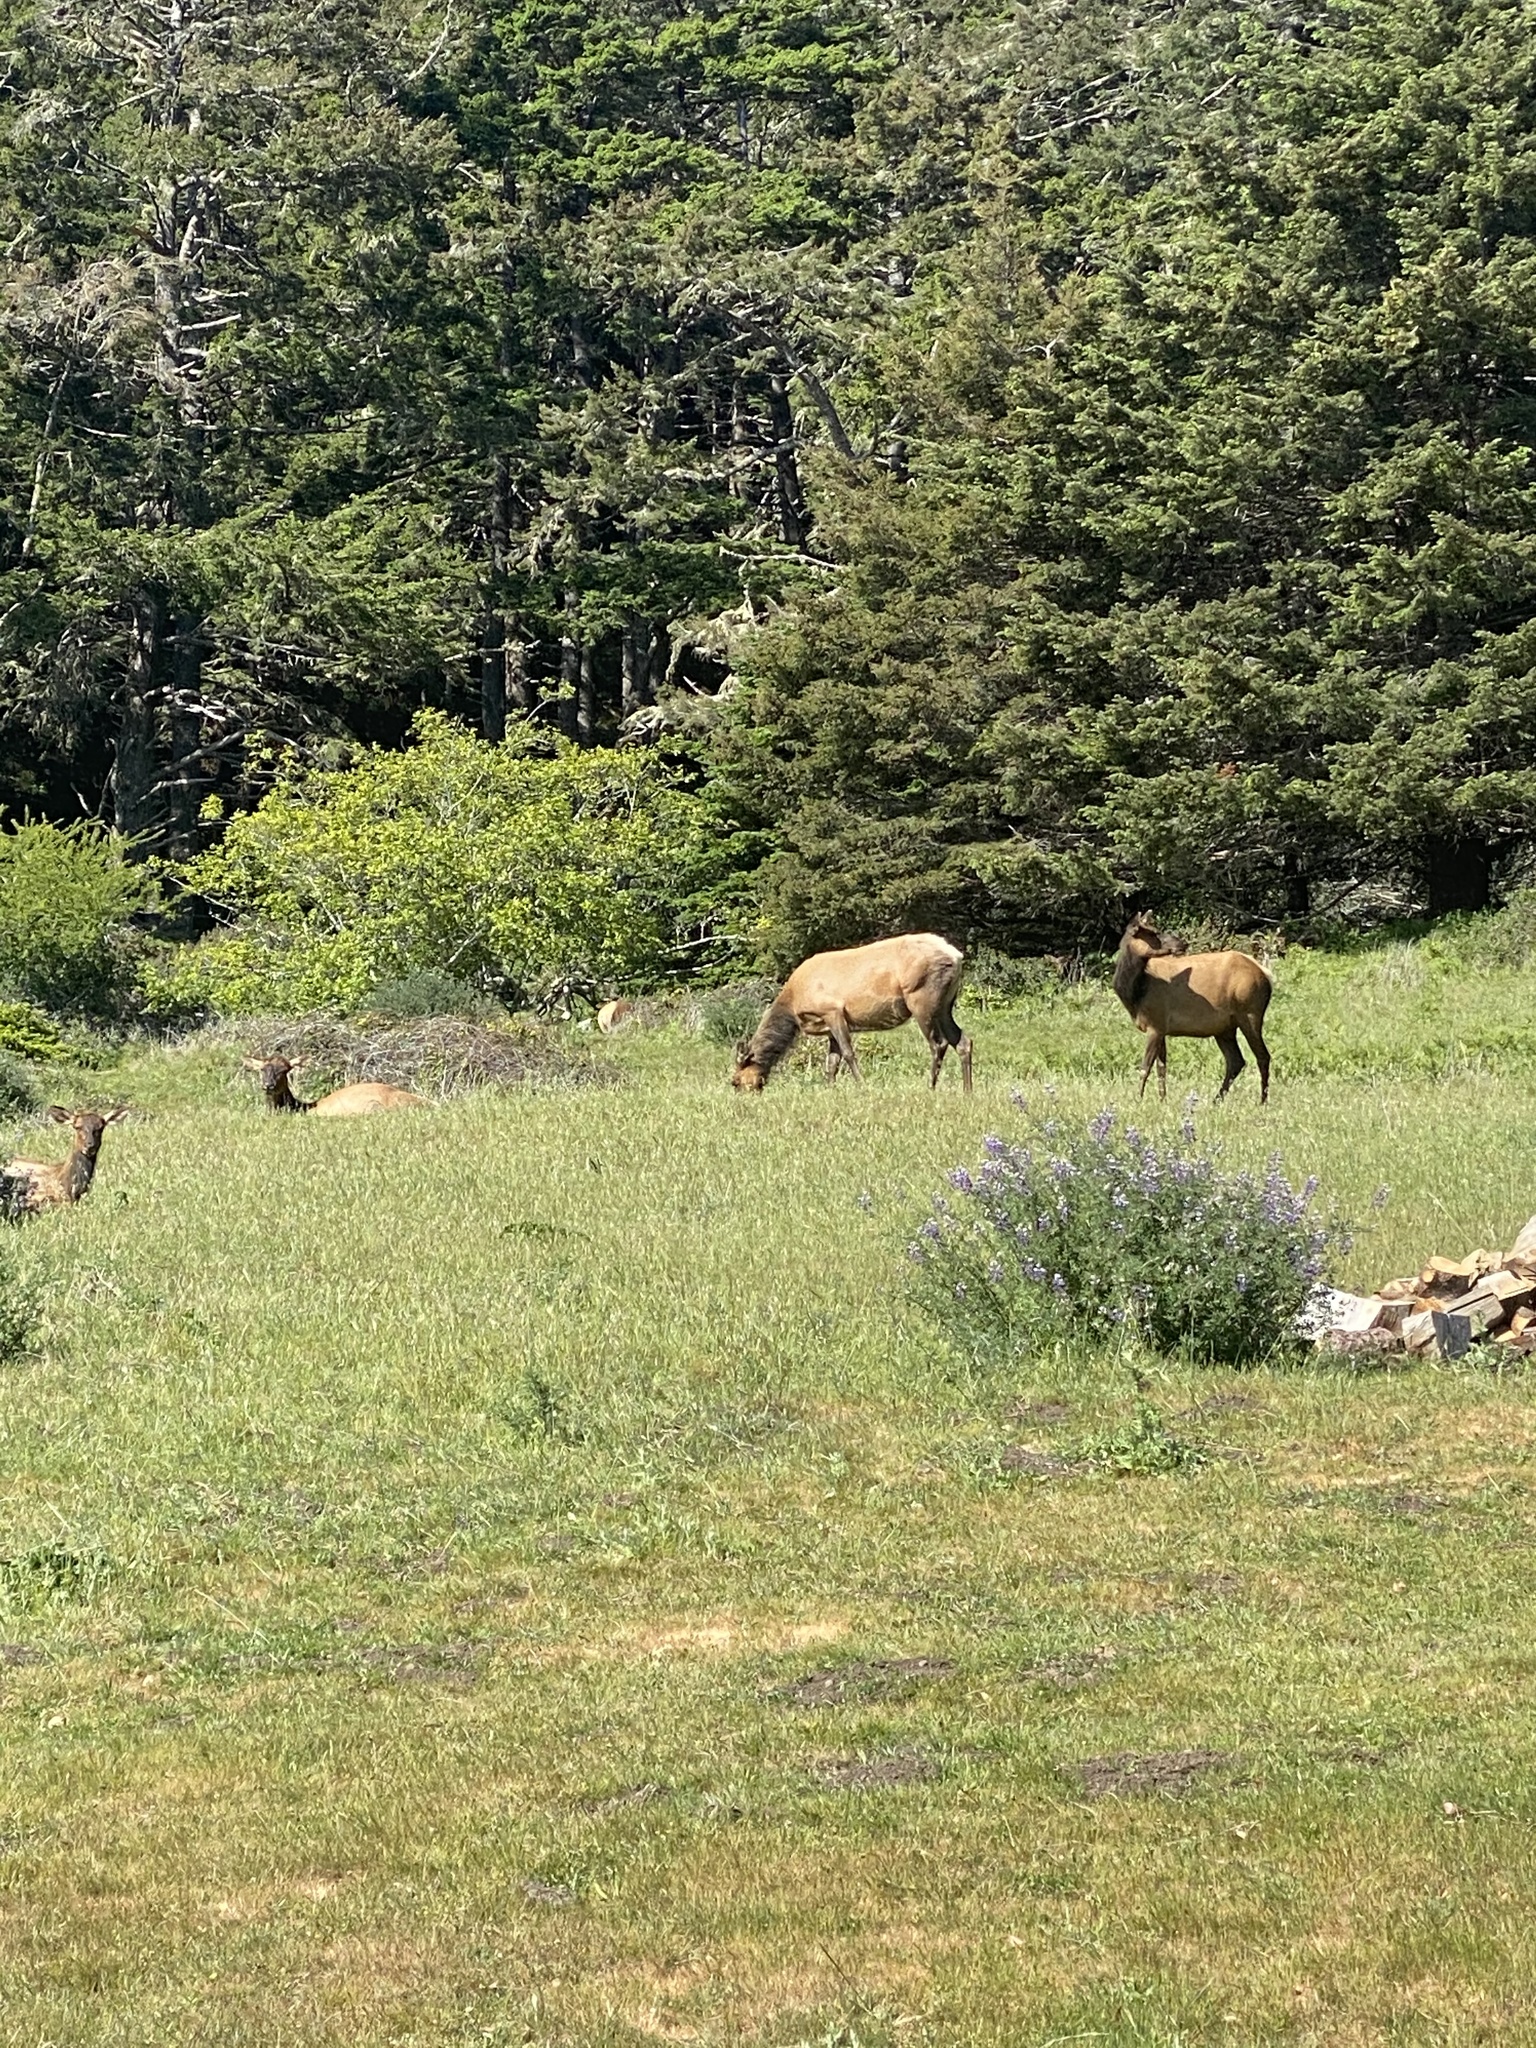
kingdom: Animalia
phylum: Chordata
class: Mammalia
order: Artiodactyla
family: Cervidae
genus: Cervus
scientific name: Cervus elaphus
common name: Red deer
